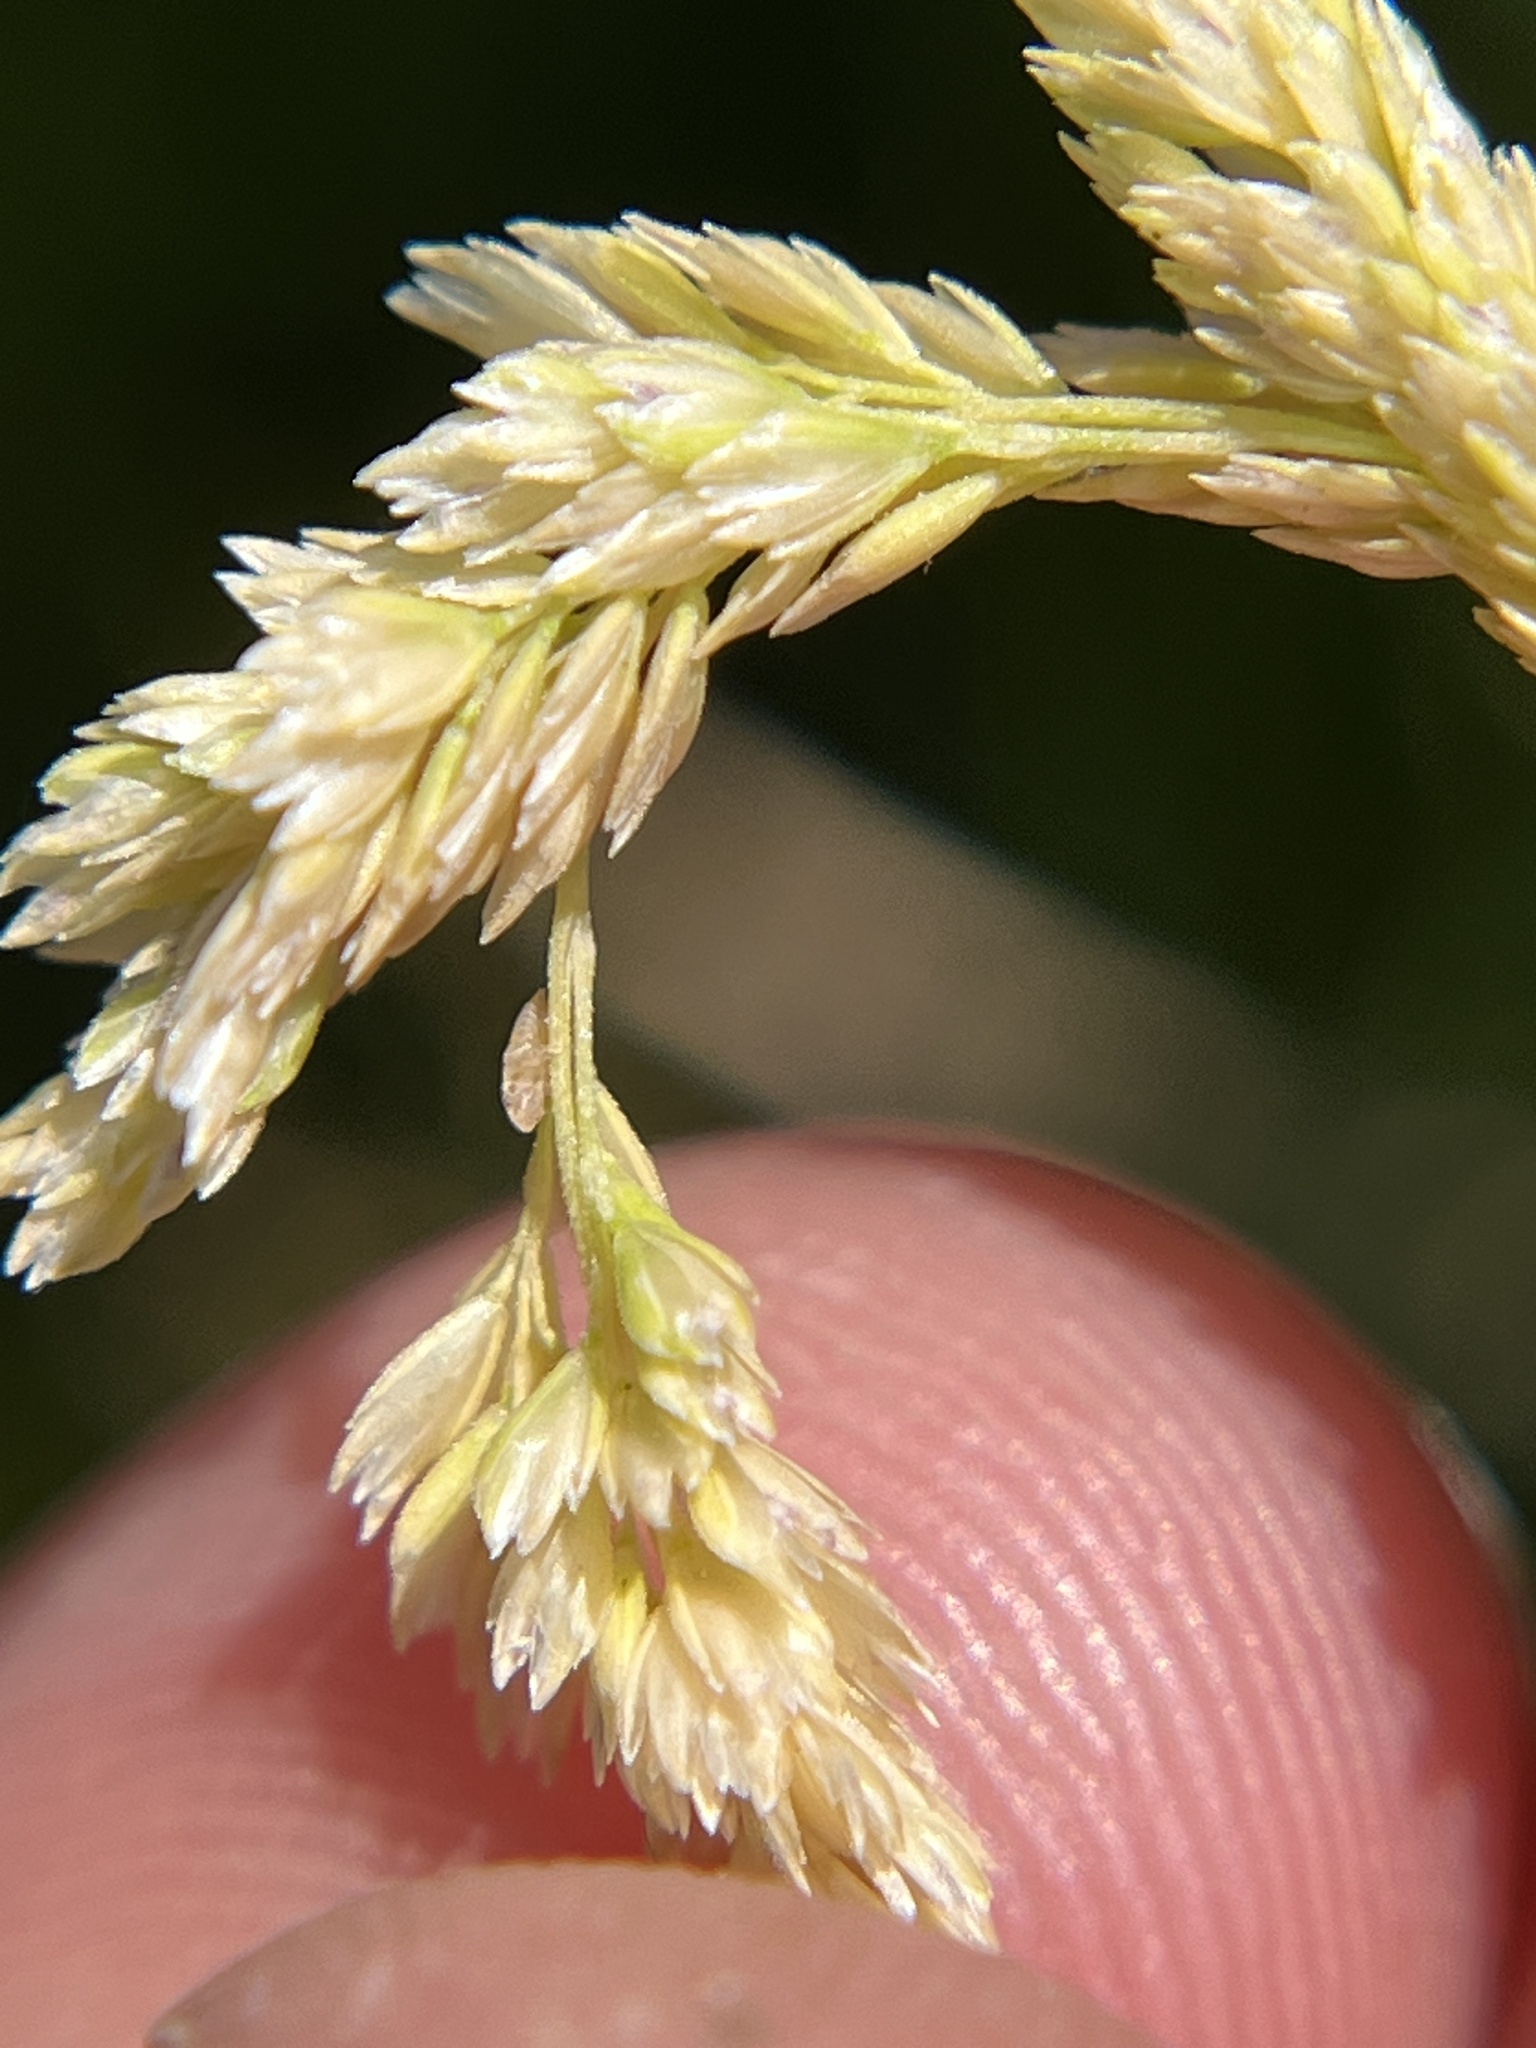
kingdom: Plantae
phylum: Tracheophyta
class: Liliopsida
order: Poales
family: Poaceae
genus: Sphenopholis
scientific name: Sphenopholis obtusata
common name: Prairie grass
